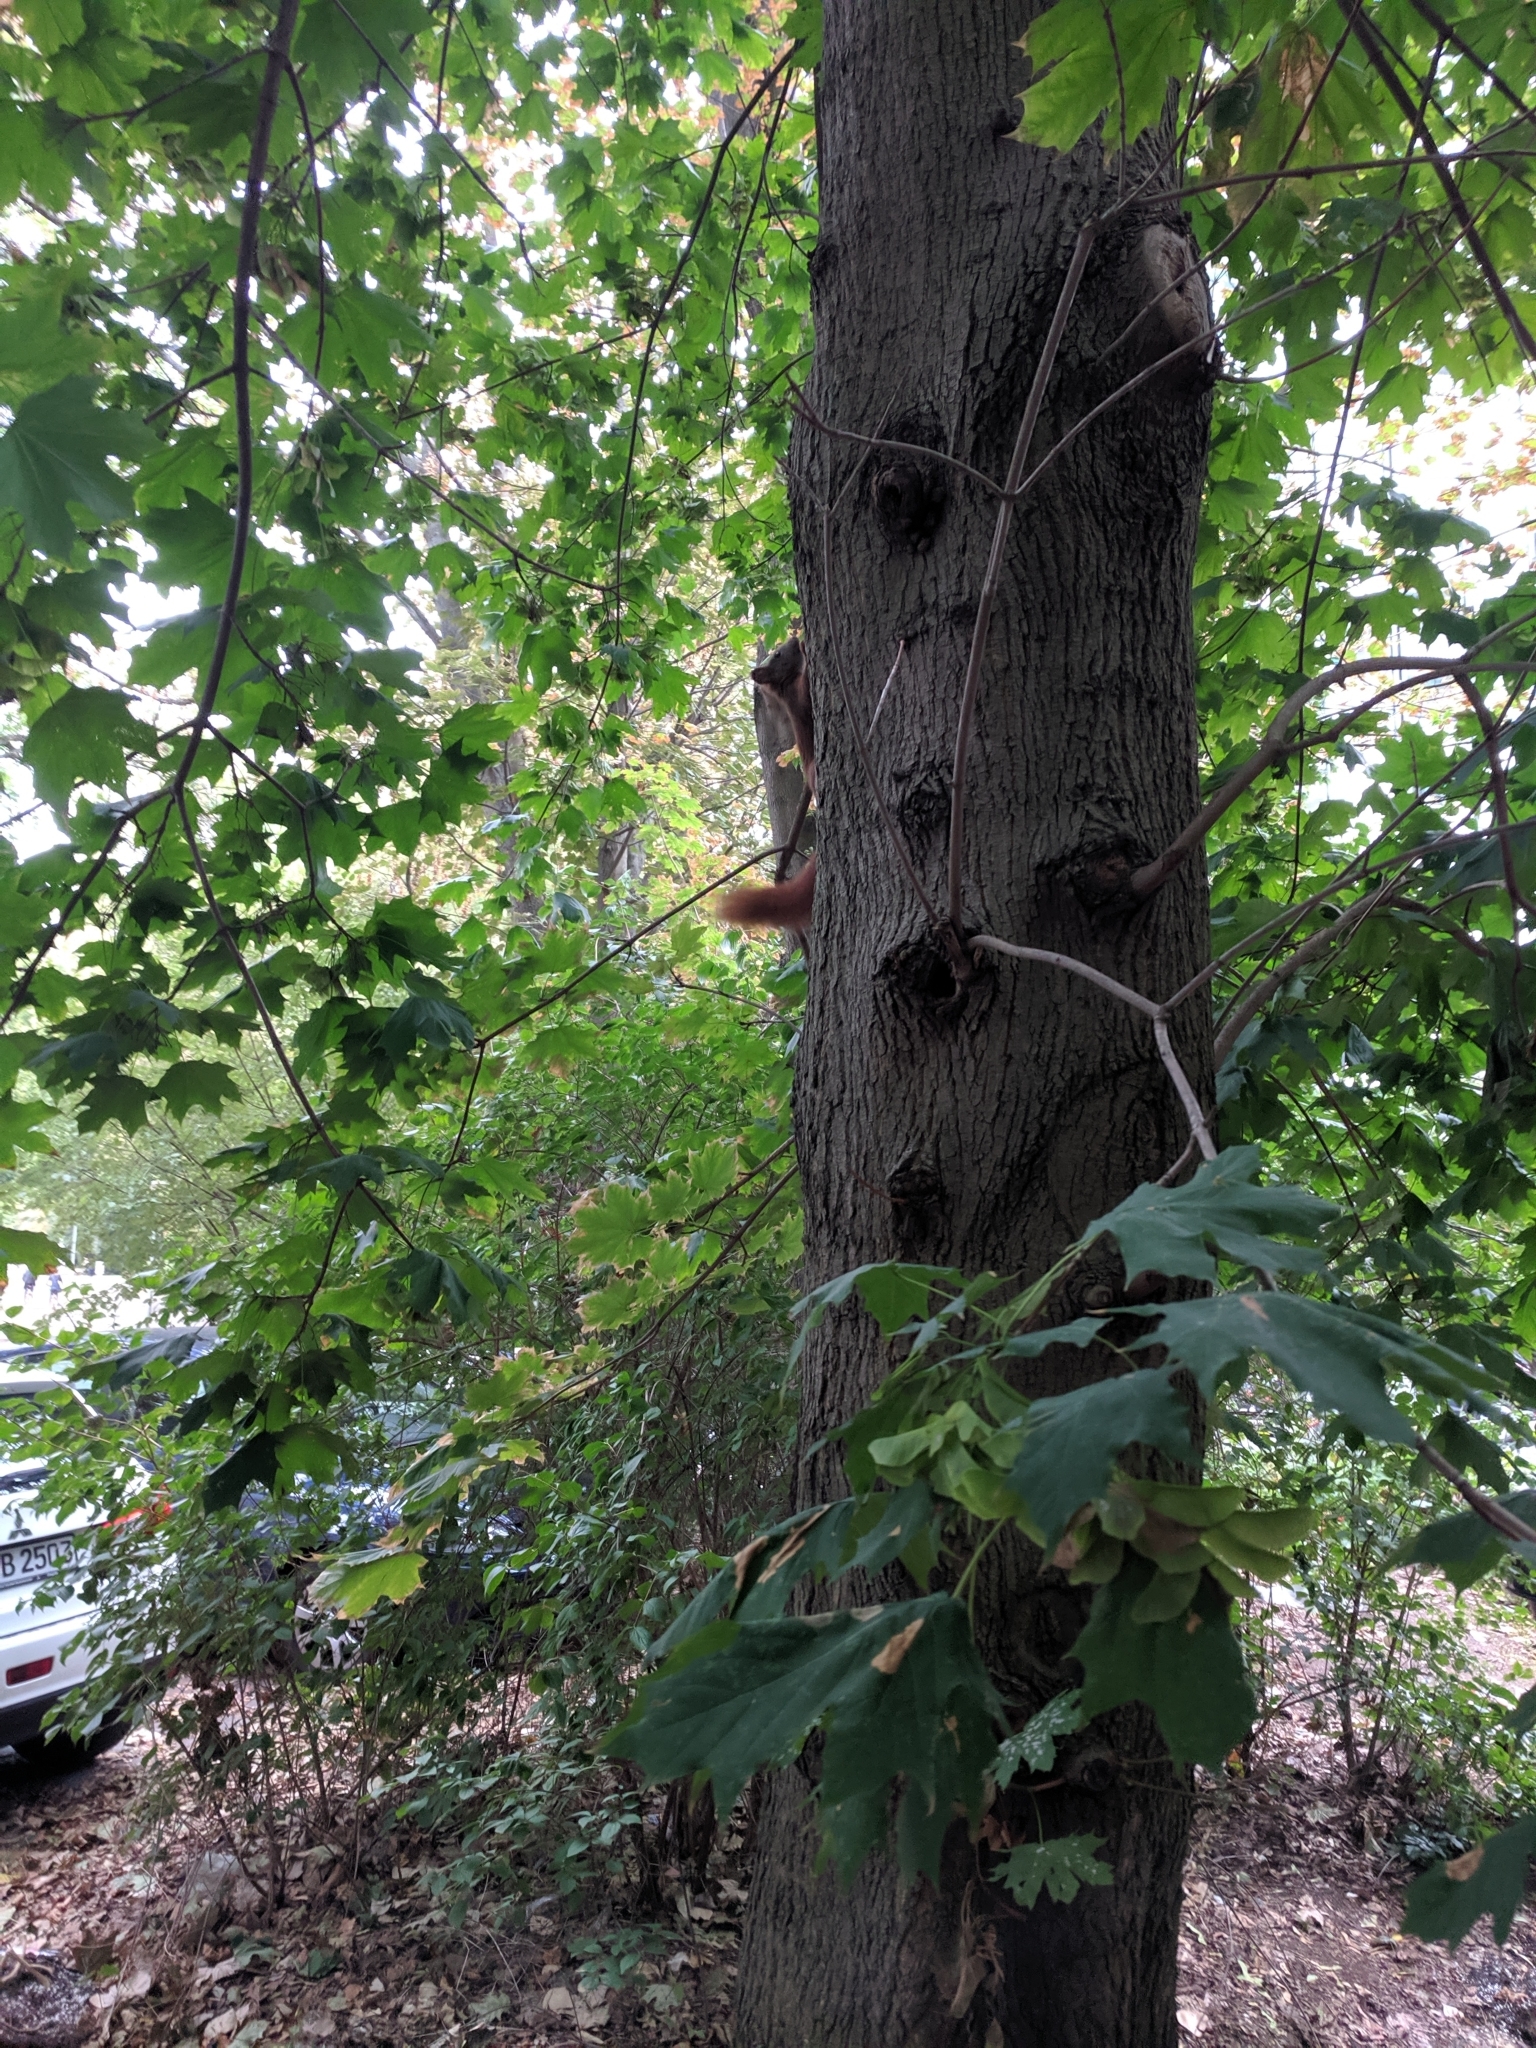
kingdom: Animalia
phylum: Chordata
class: Mammalia
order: Rodentia
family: Sciuridae
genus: Sciurus
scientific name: Sciurus vulgaris
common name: Eurasian red squirrel
